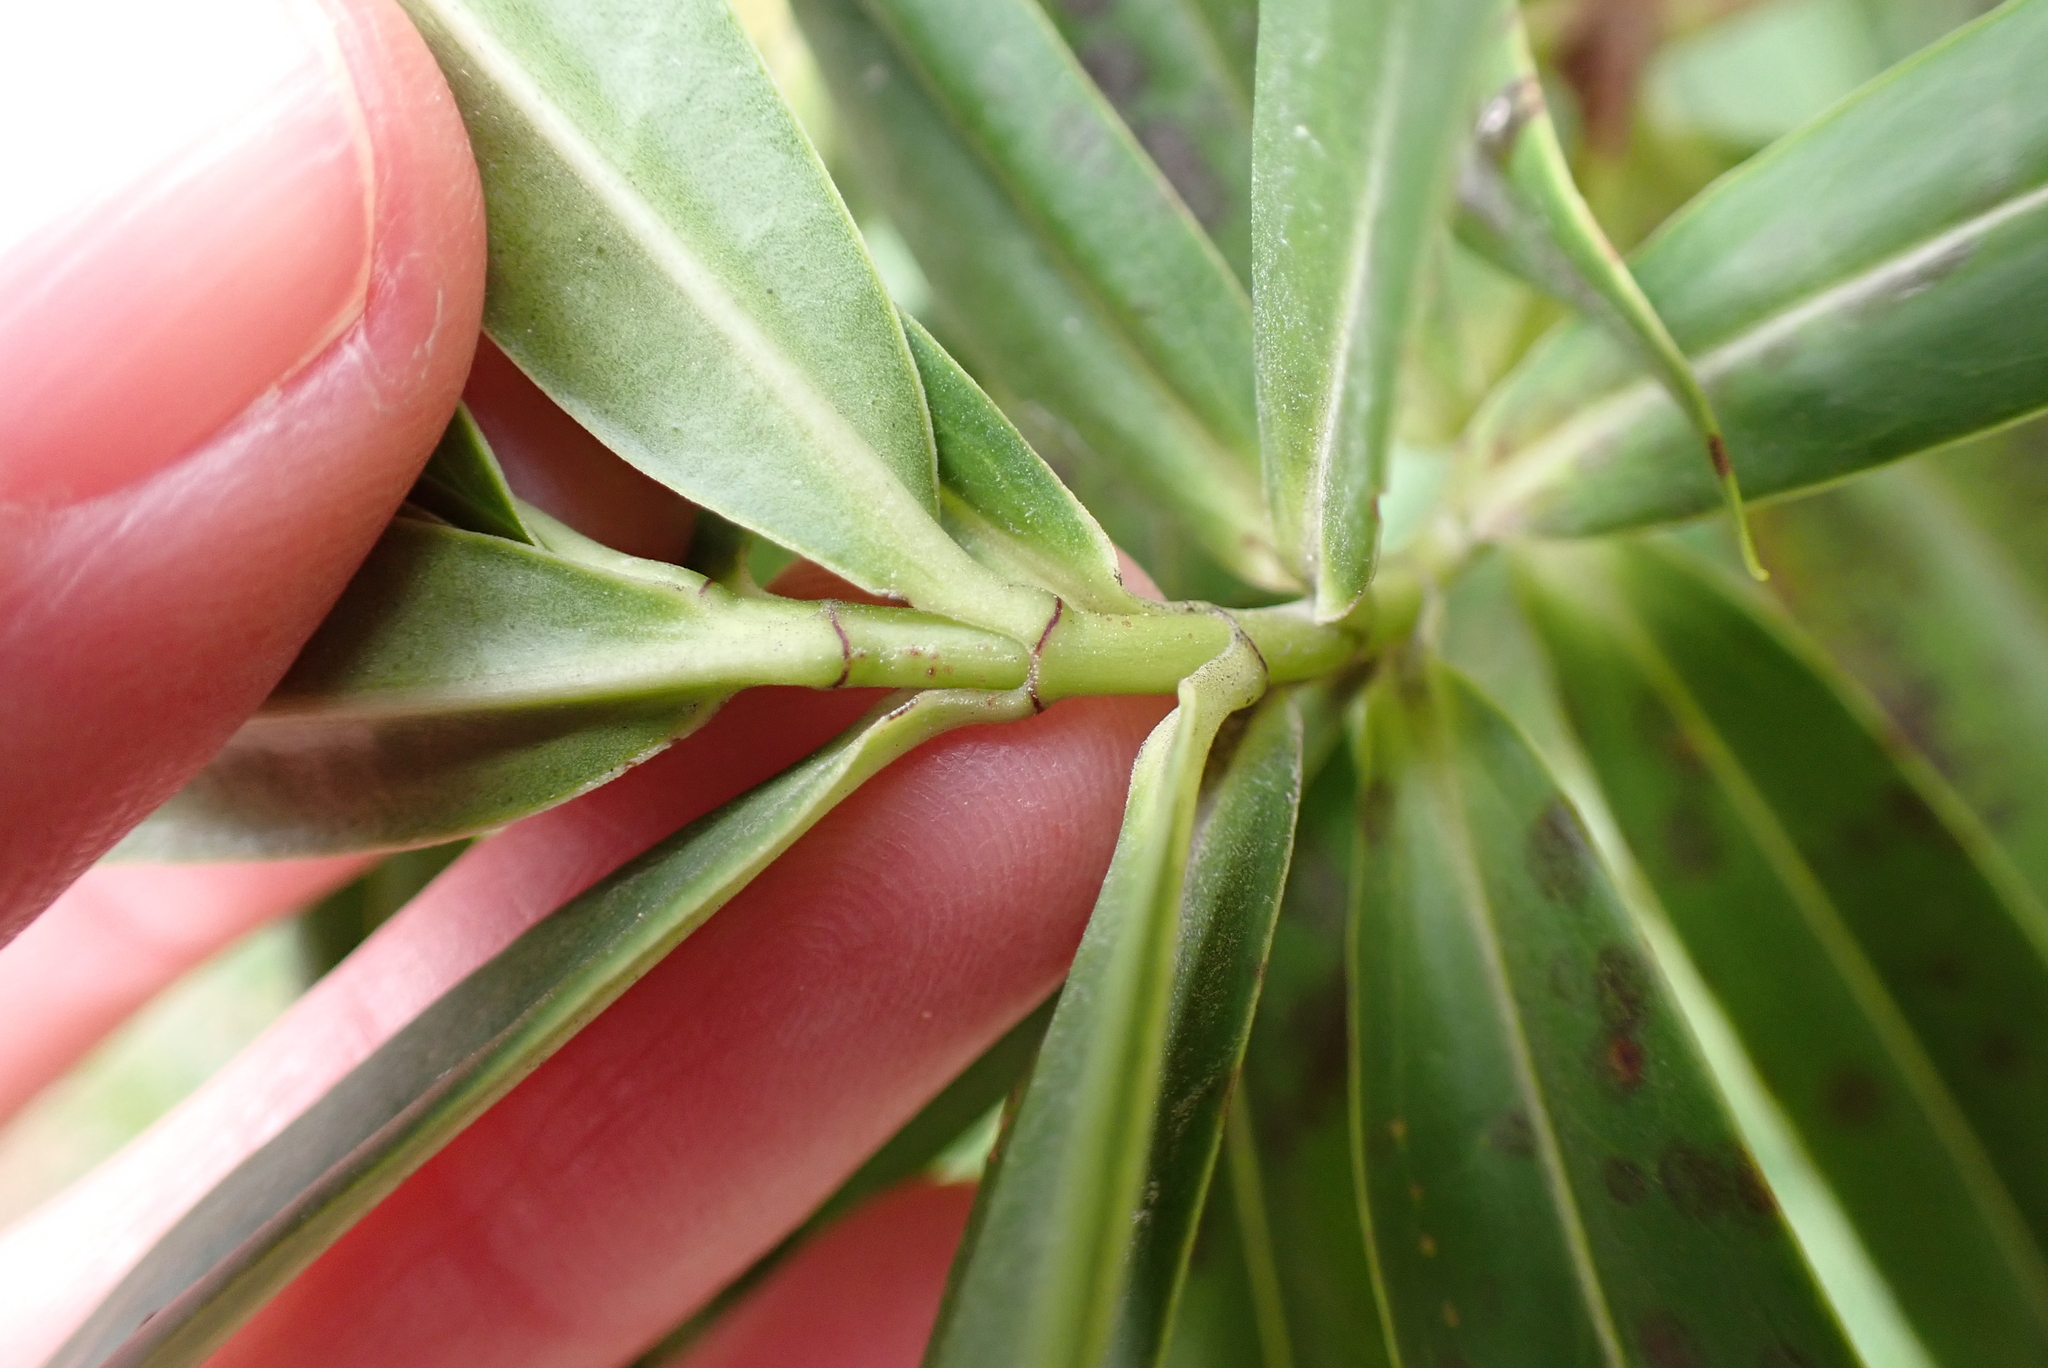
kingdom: Plantae
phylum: Tracheophyta
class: Magnoliopsida
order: Lamiales
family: Plantaginaceae
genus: Veronica
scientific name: Veronica salicifolia
